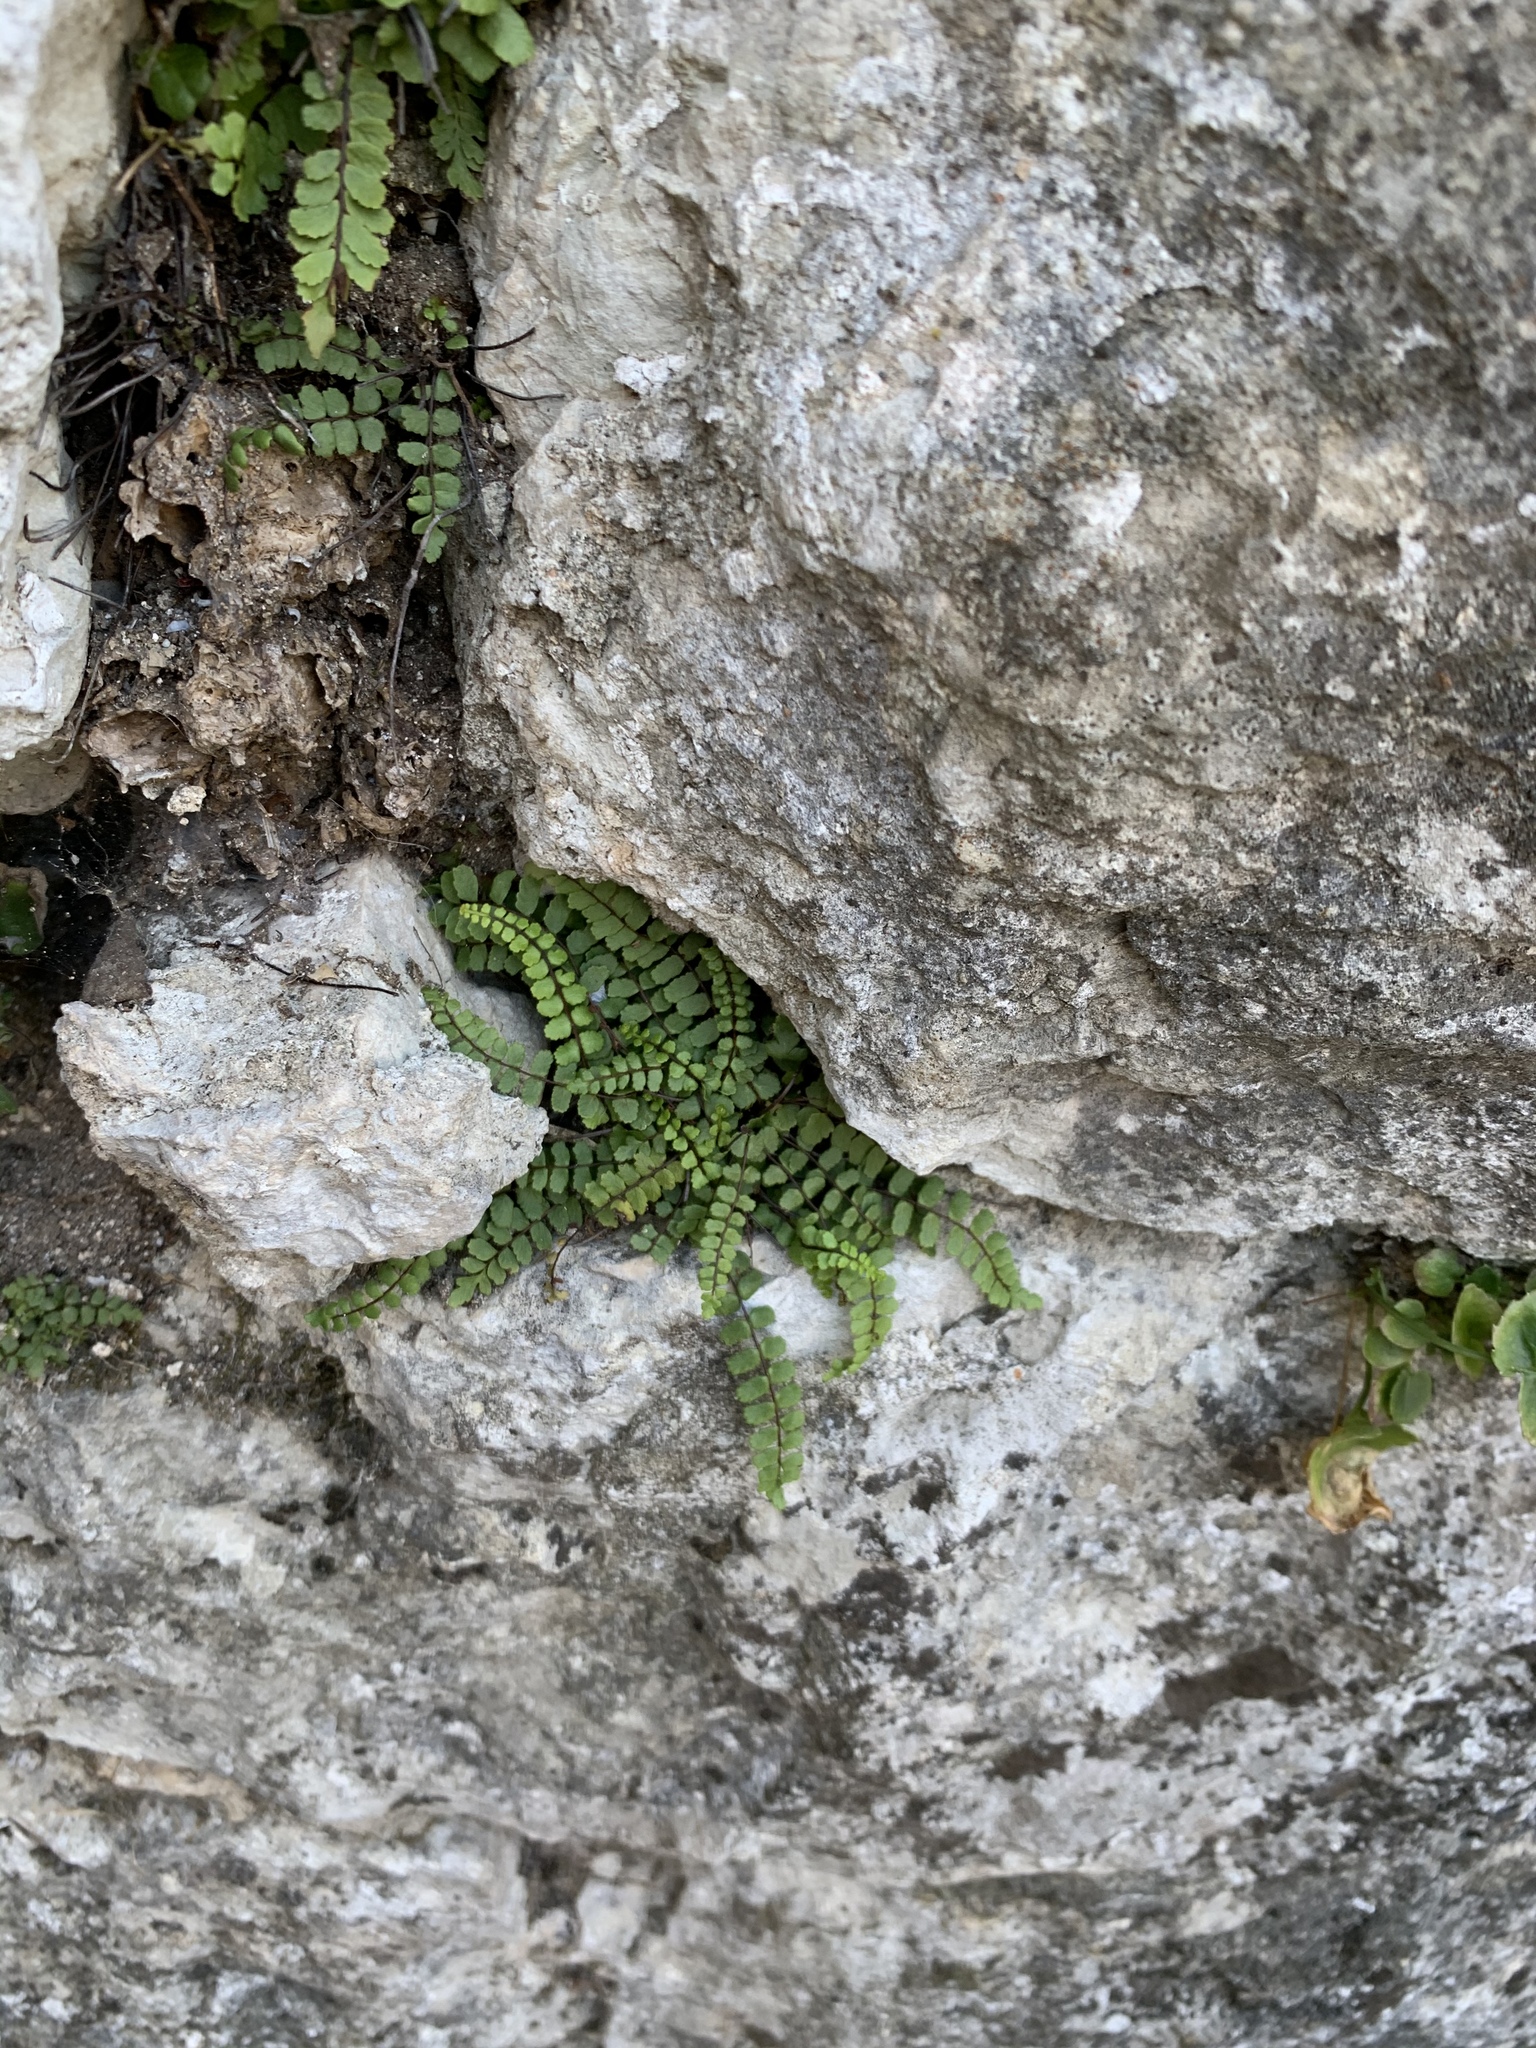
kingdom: Plantae
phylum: Tracheophyta
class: Polypodiopsida
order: Polypodiales
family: Aspleniaceae
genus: Asplenium
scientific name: Asplenium trichomanes
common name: Maidenhair spleenwort
